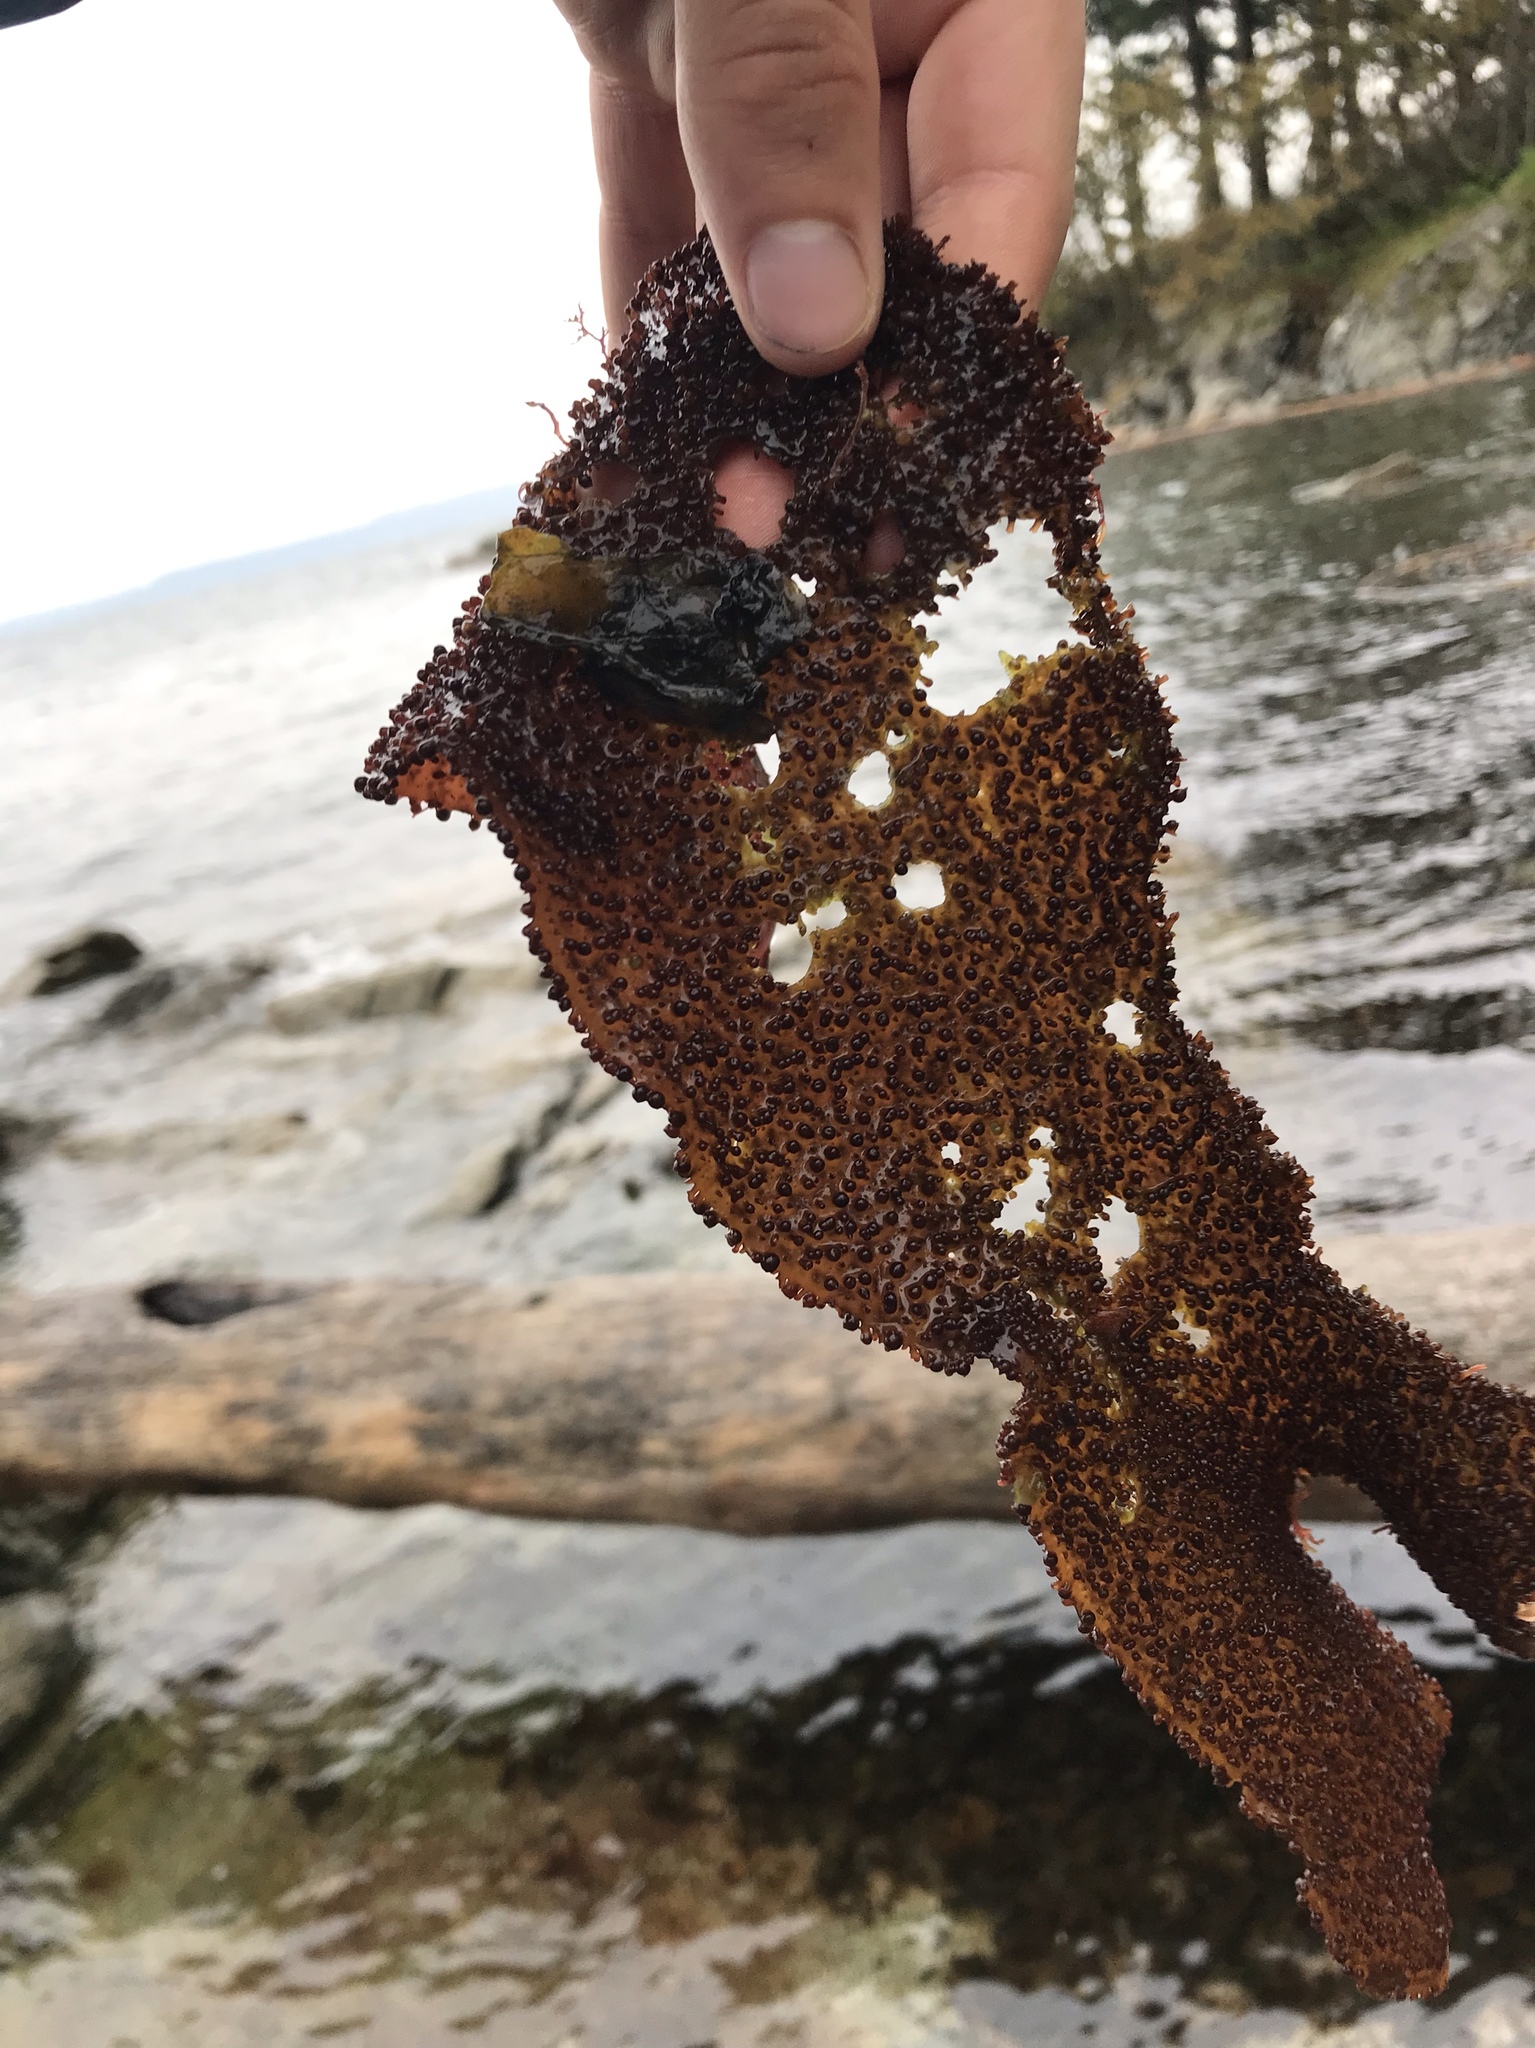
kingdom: Plantae
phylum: Rhodophyta
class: Florideophyceae
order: Gigartinales
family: Gigartinaceae
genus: Chondracanthus
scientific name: Chondracanthus exasperatus
